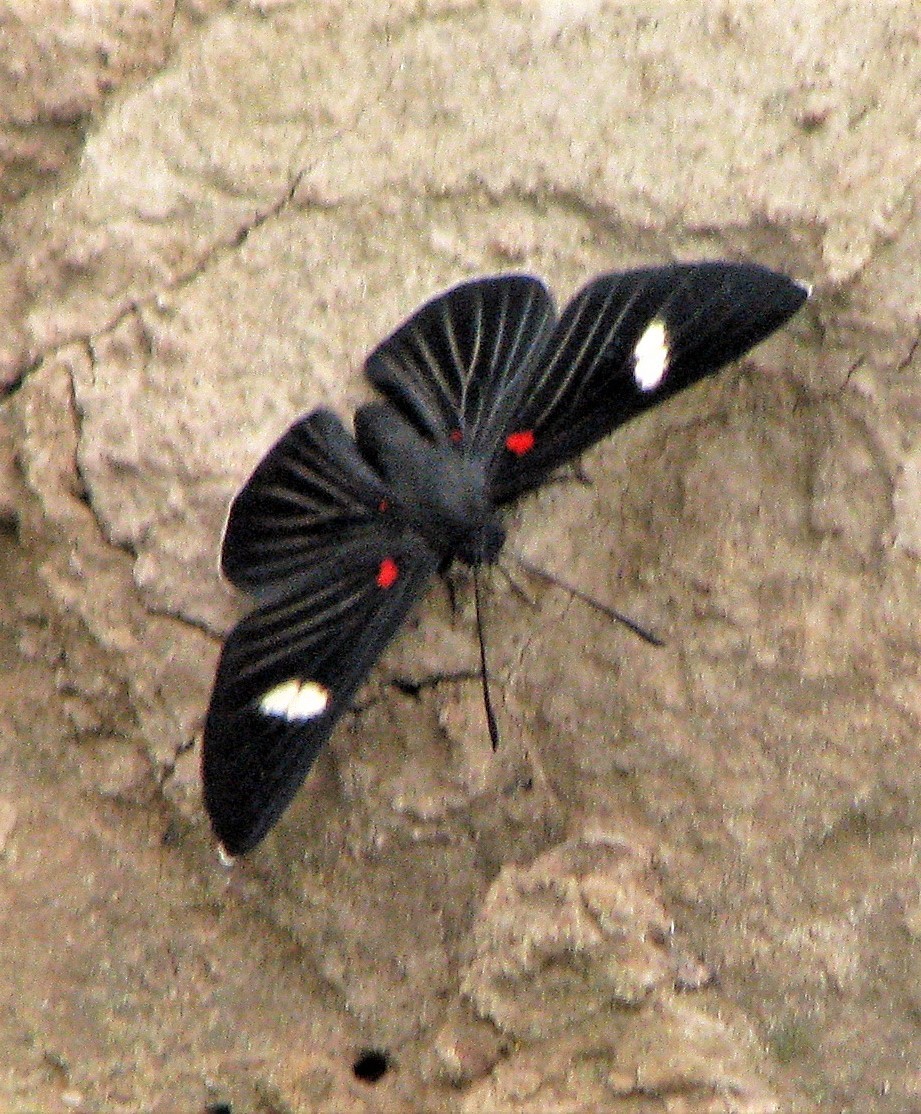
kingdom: Animalia
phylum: Arthropoda
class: Insecta
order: Lepidoptera
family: Lycaenidae
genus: Melanis
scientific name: Melanis aegates
